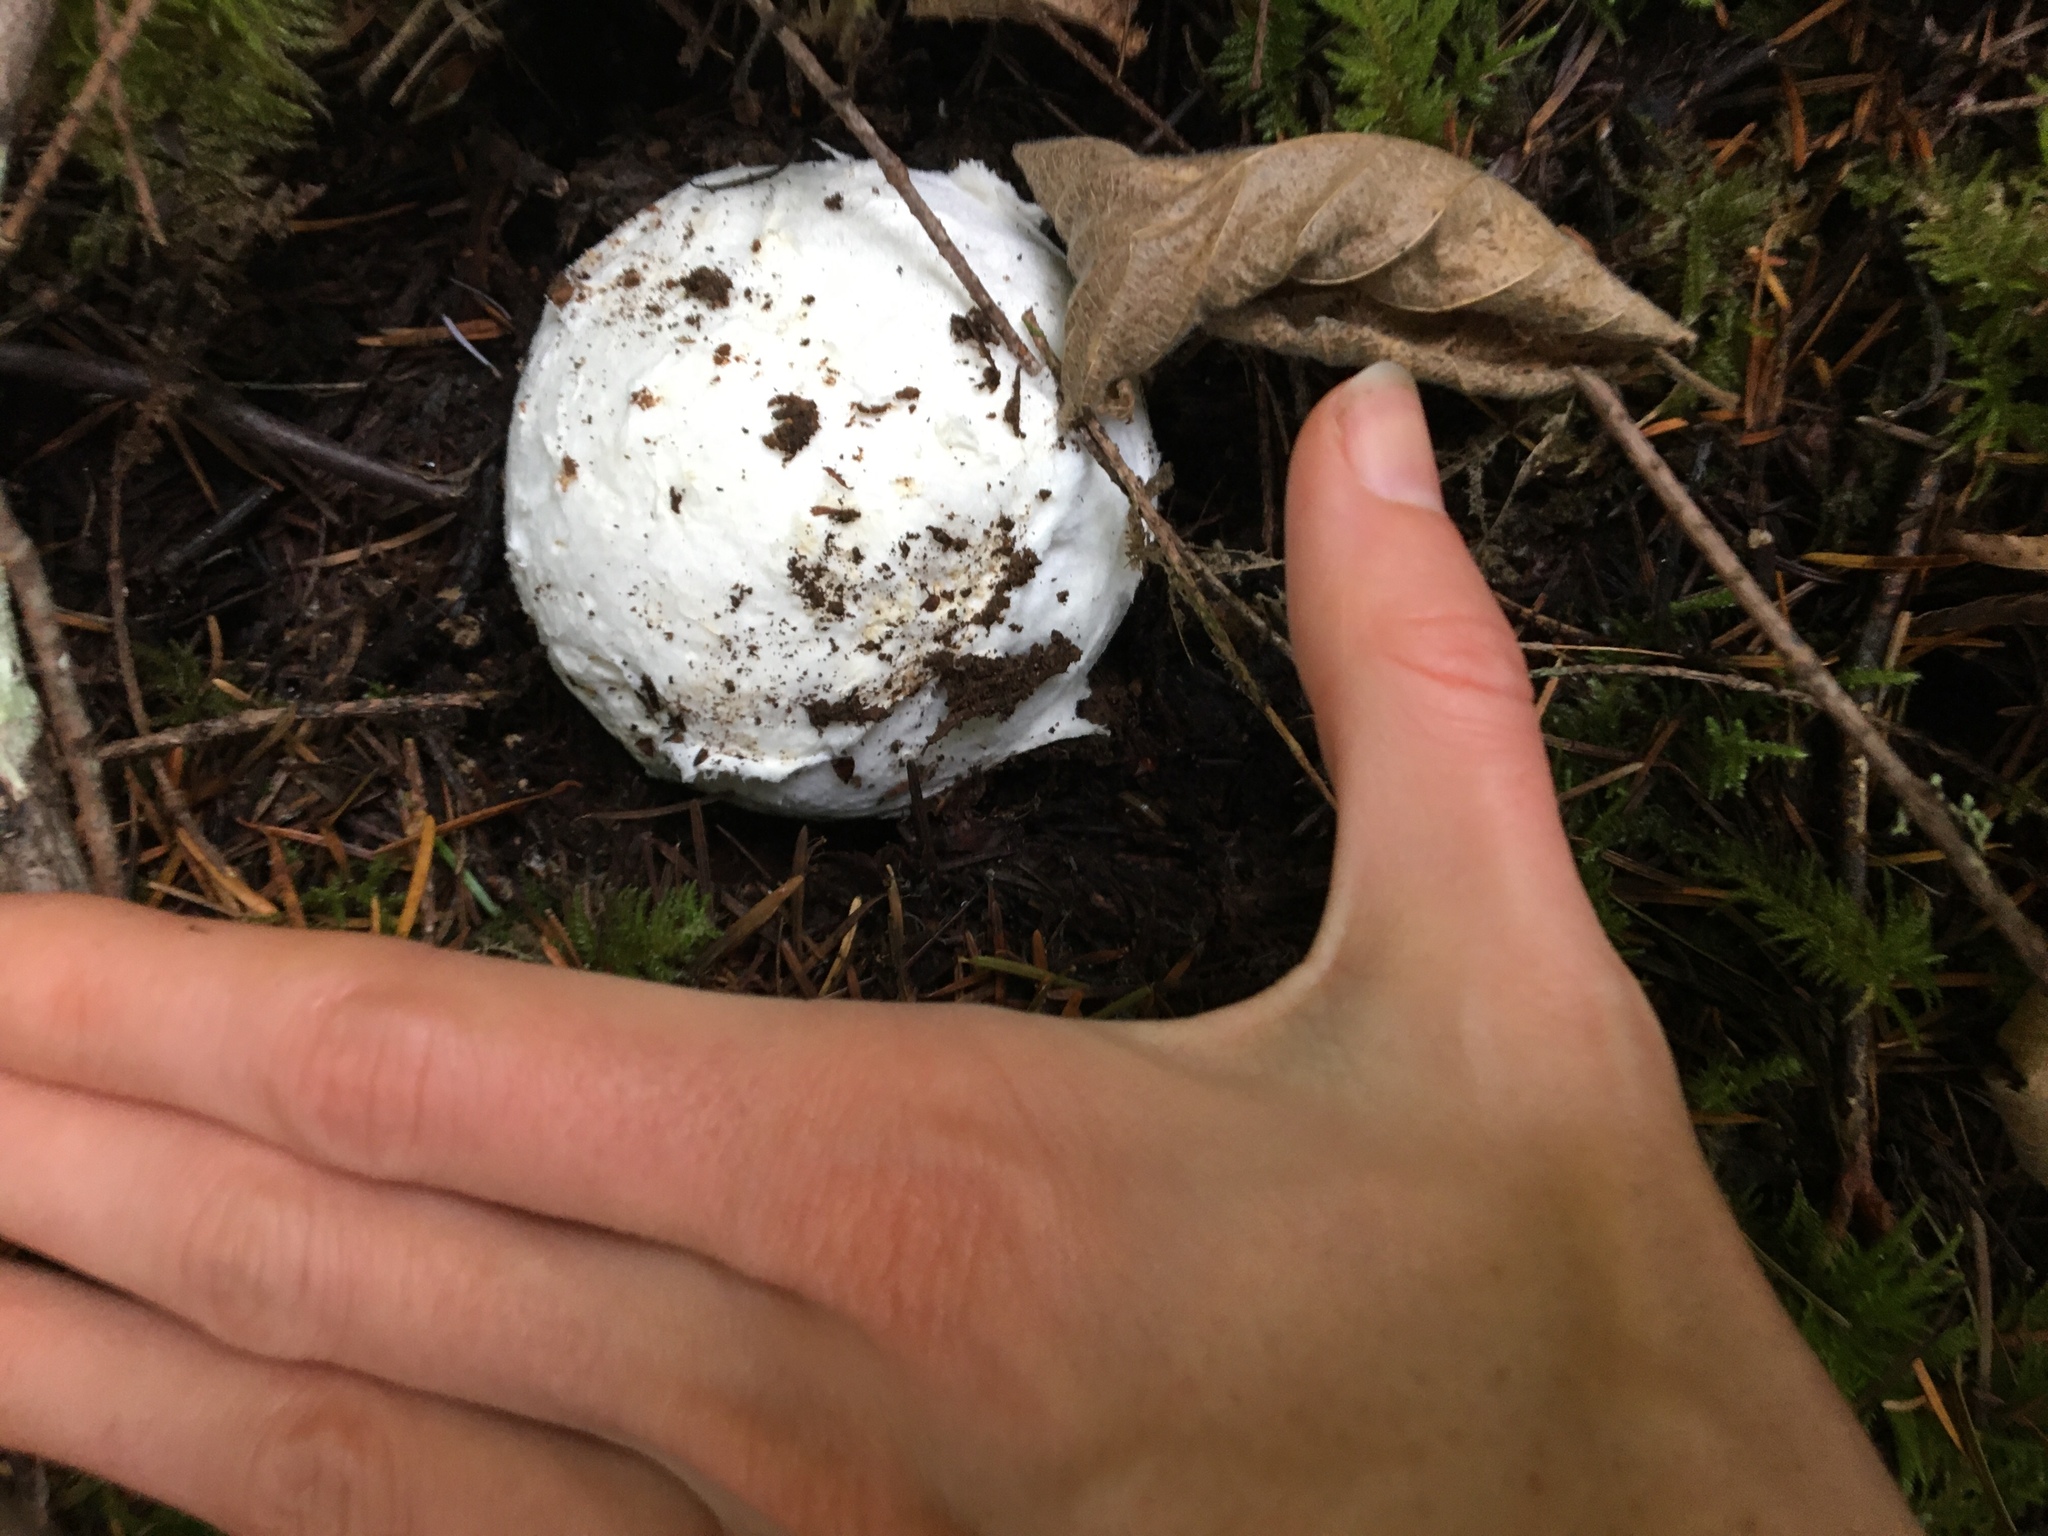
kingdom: Fungi
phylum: Basidiomycota
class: Agaricomycetes
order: Agaricales
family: Amanitaceae
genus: Amanita
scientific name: Amanita calyptroderma
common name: Coccora
